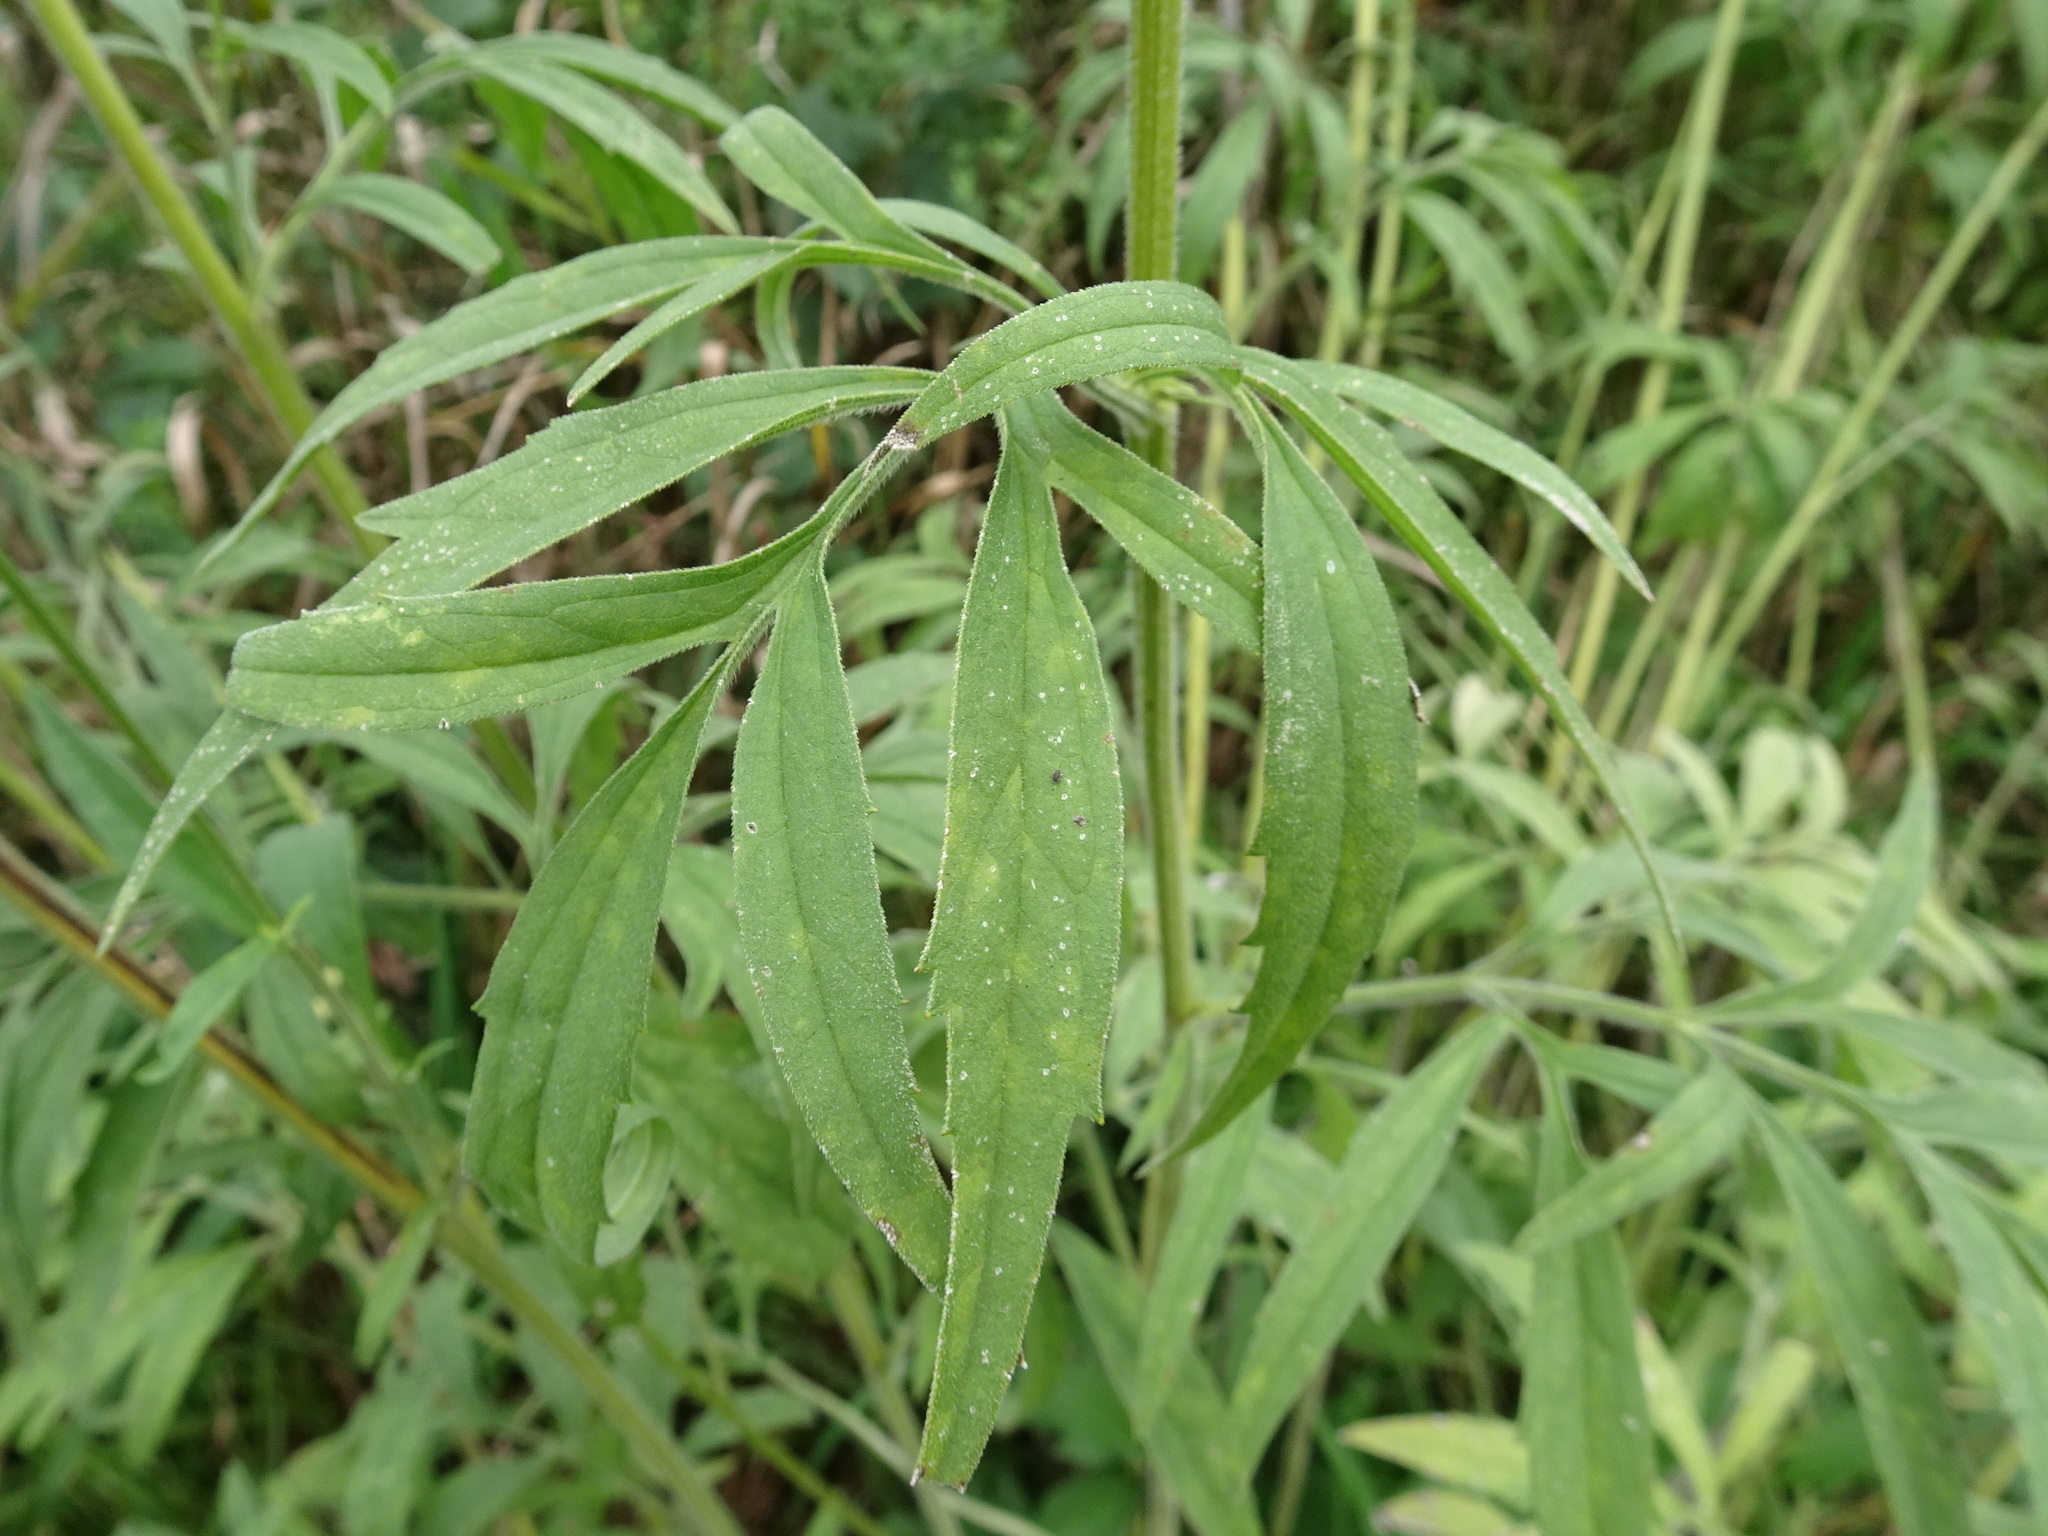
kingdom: Plantae
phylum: Tracheophyta
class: Magnoliopsida
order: Asterales
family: Asteraceae
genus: Ratibida
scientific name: Ratibida pinnata
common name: Drooping prairie-coneflower
